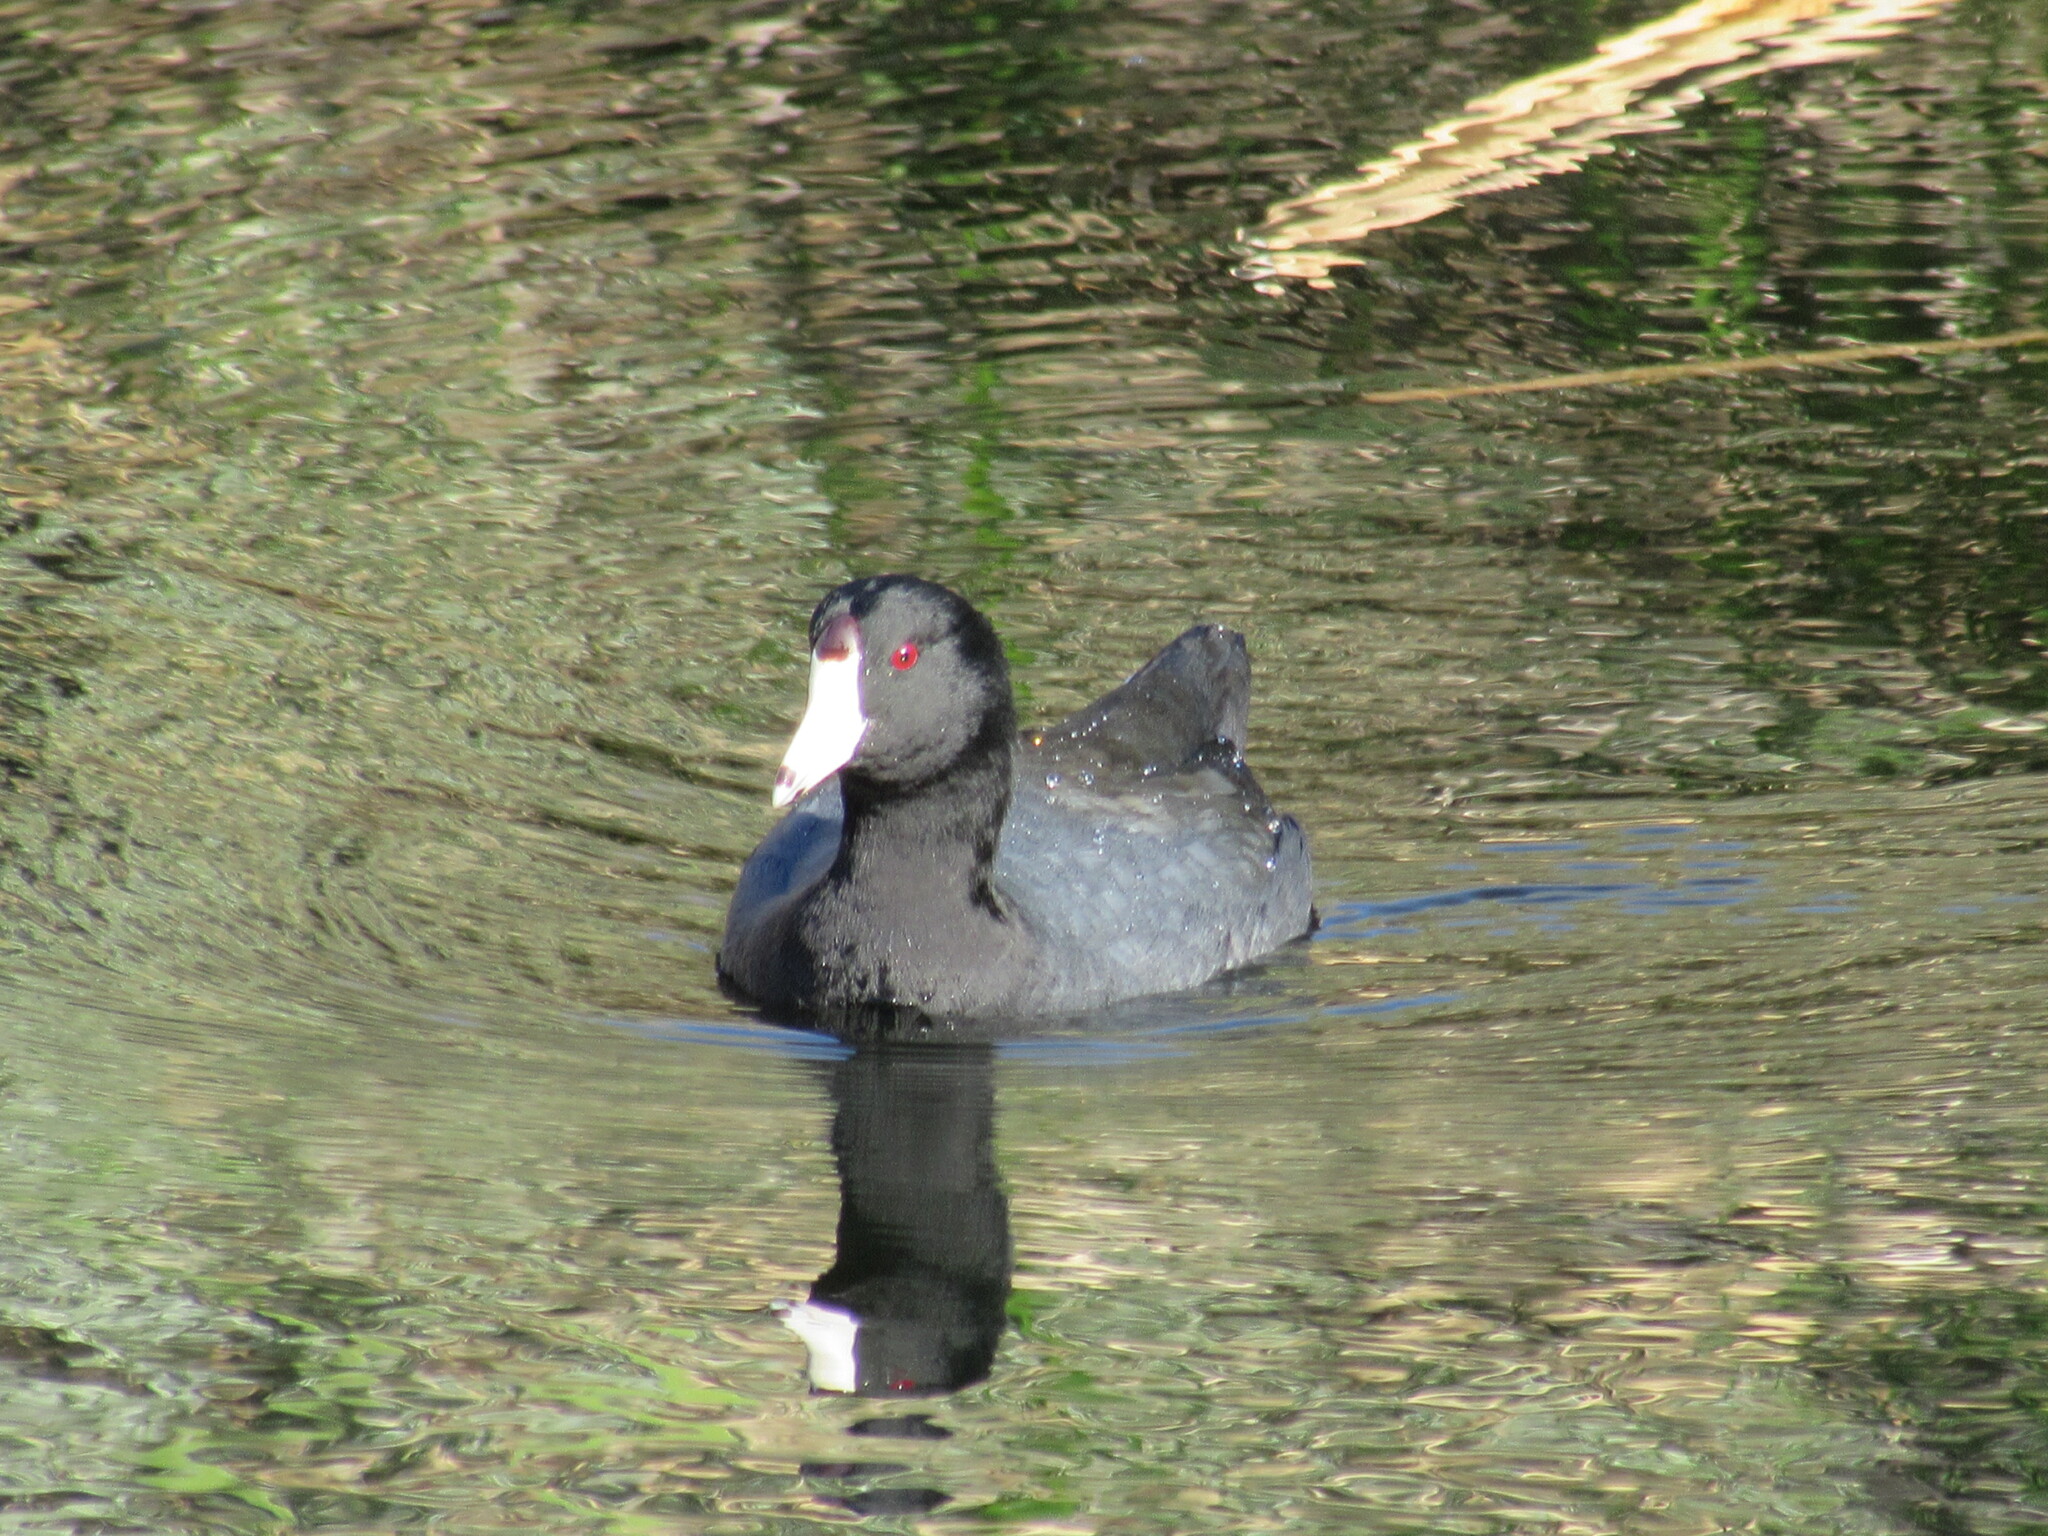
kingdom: Animalia
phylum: Chordata
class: Aves
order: Gruiformes
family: Rallidae
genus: Fulica
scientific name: Fulica americana
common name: American coot
